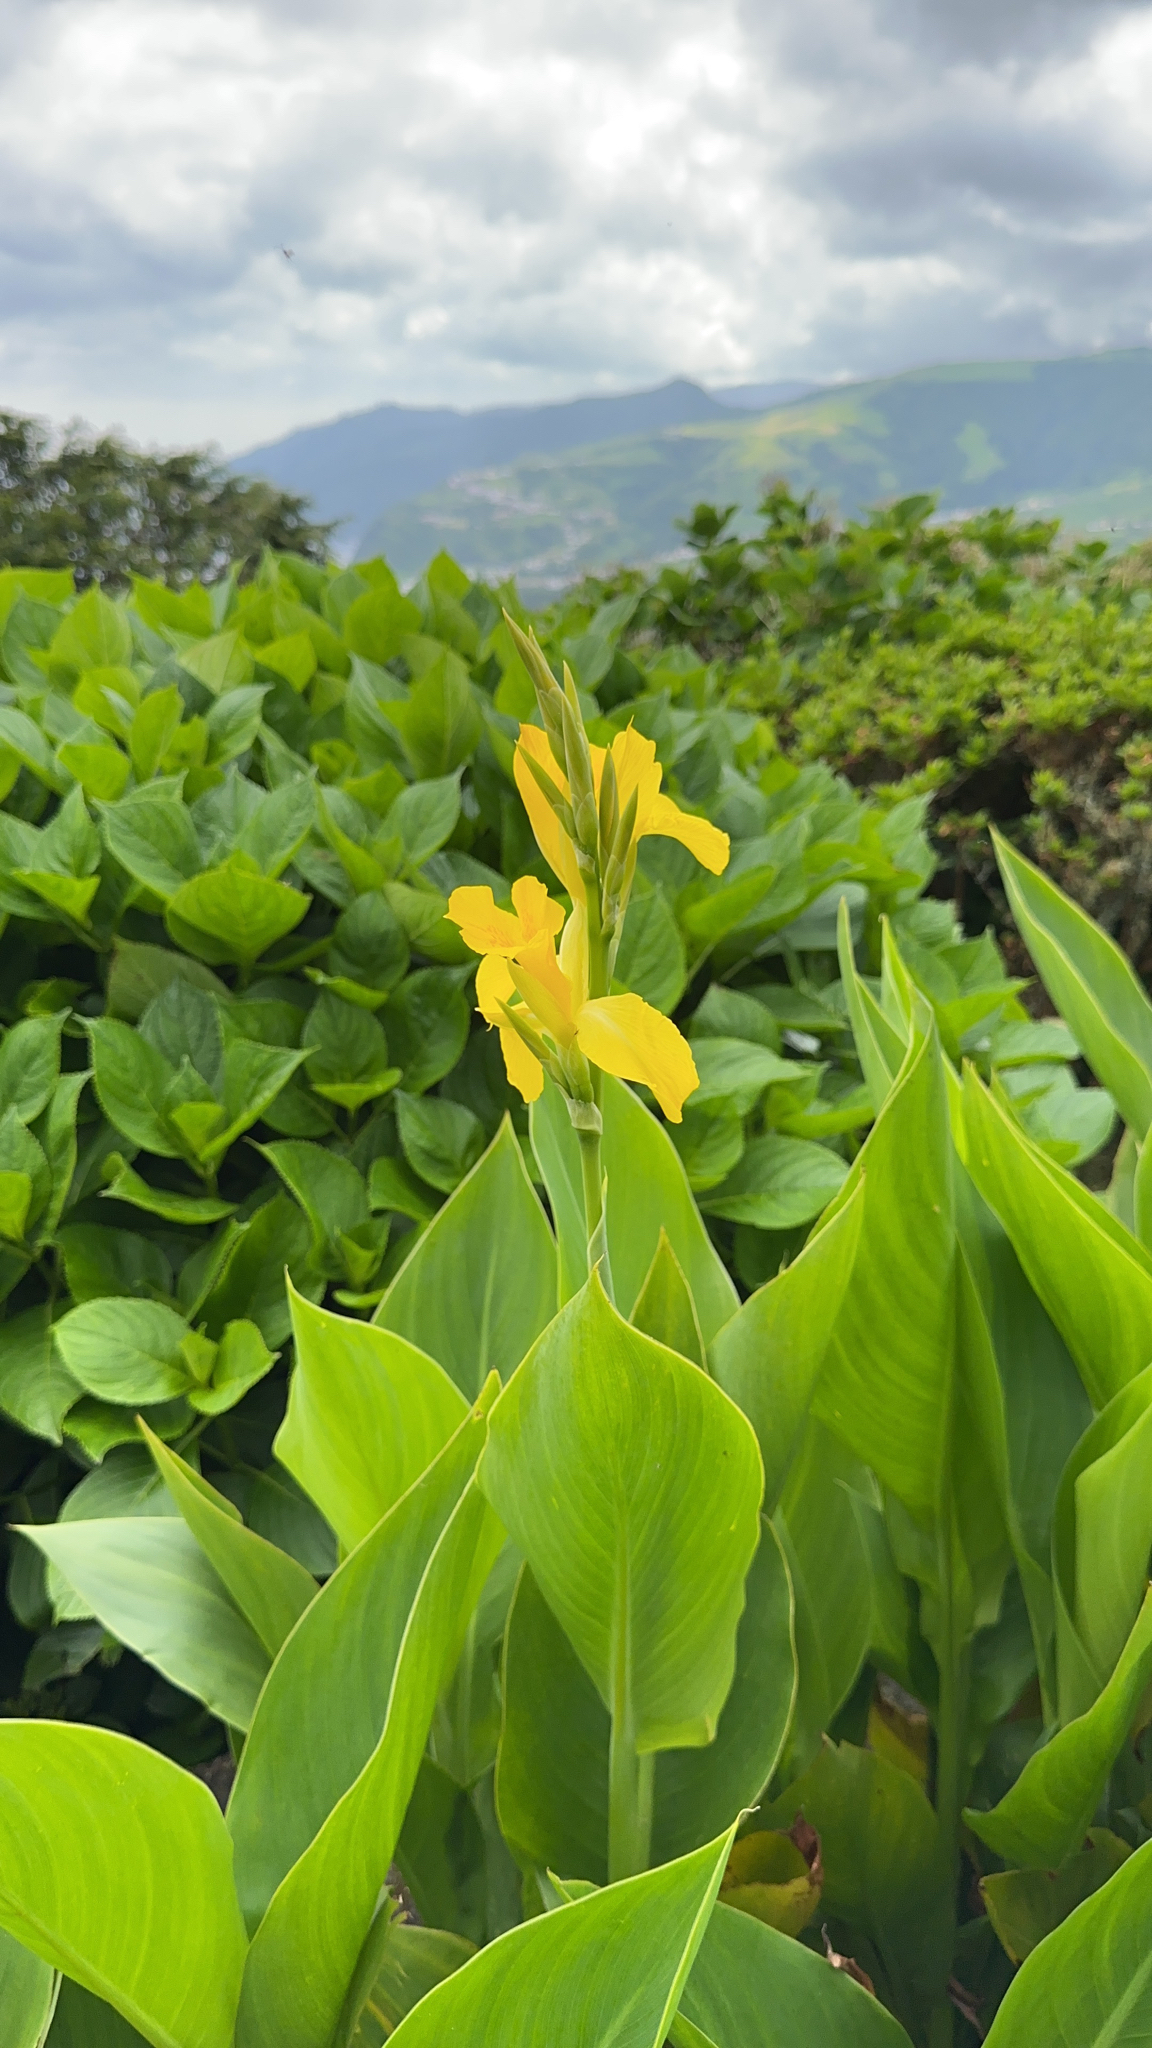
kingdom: Plantae
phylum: Tracheophyta
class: Liliopsida
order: Zingiberales
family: Cannaceae
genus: Canna
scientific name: Canna hybrida
